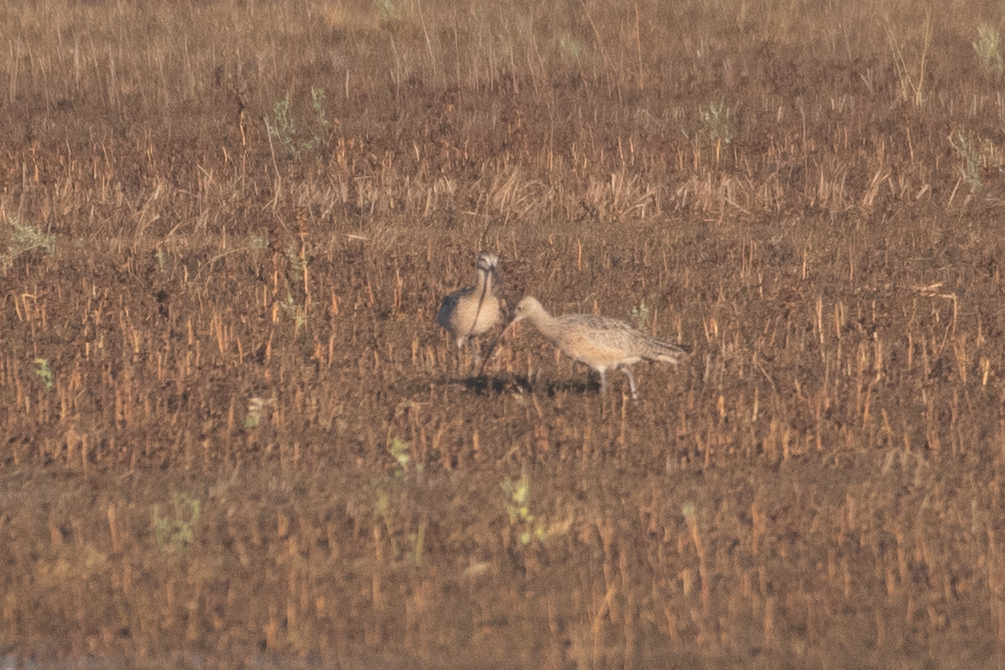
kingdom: Animalia
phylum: Chordata
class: Aves
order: Charadriiformes
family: Scolopacidae
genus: Numenius
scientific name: Numenius americanus
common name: Long-billed curlew
